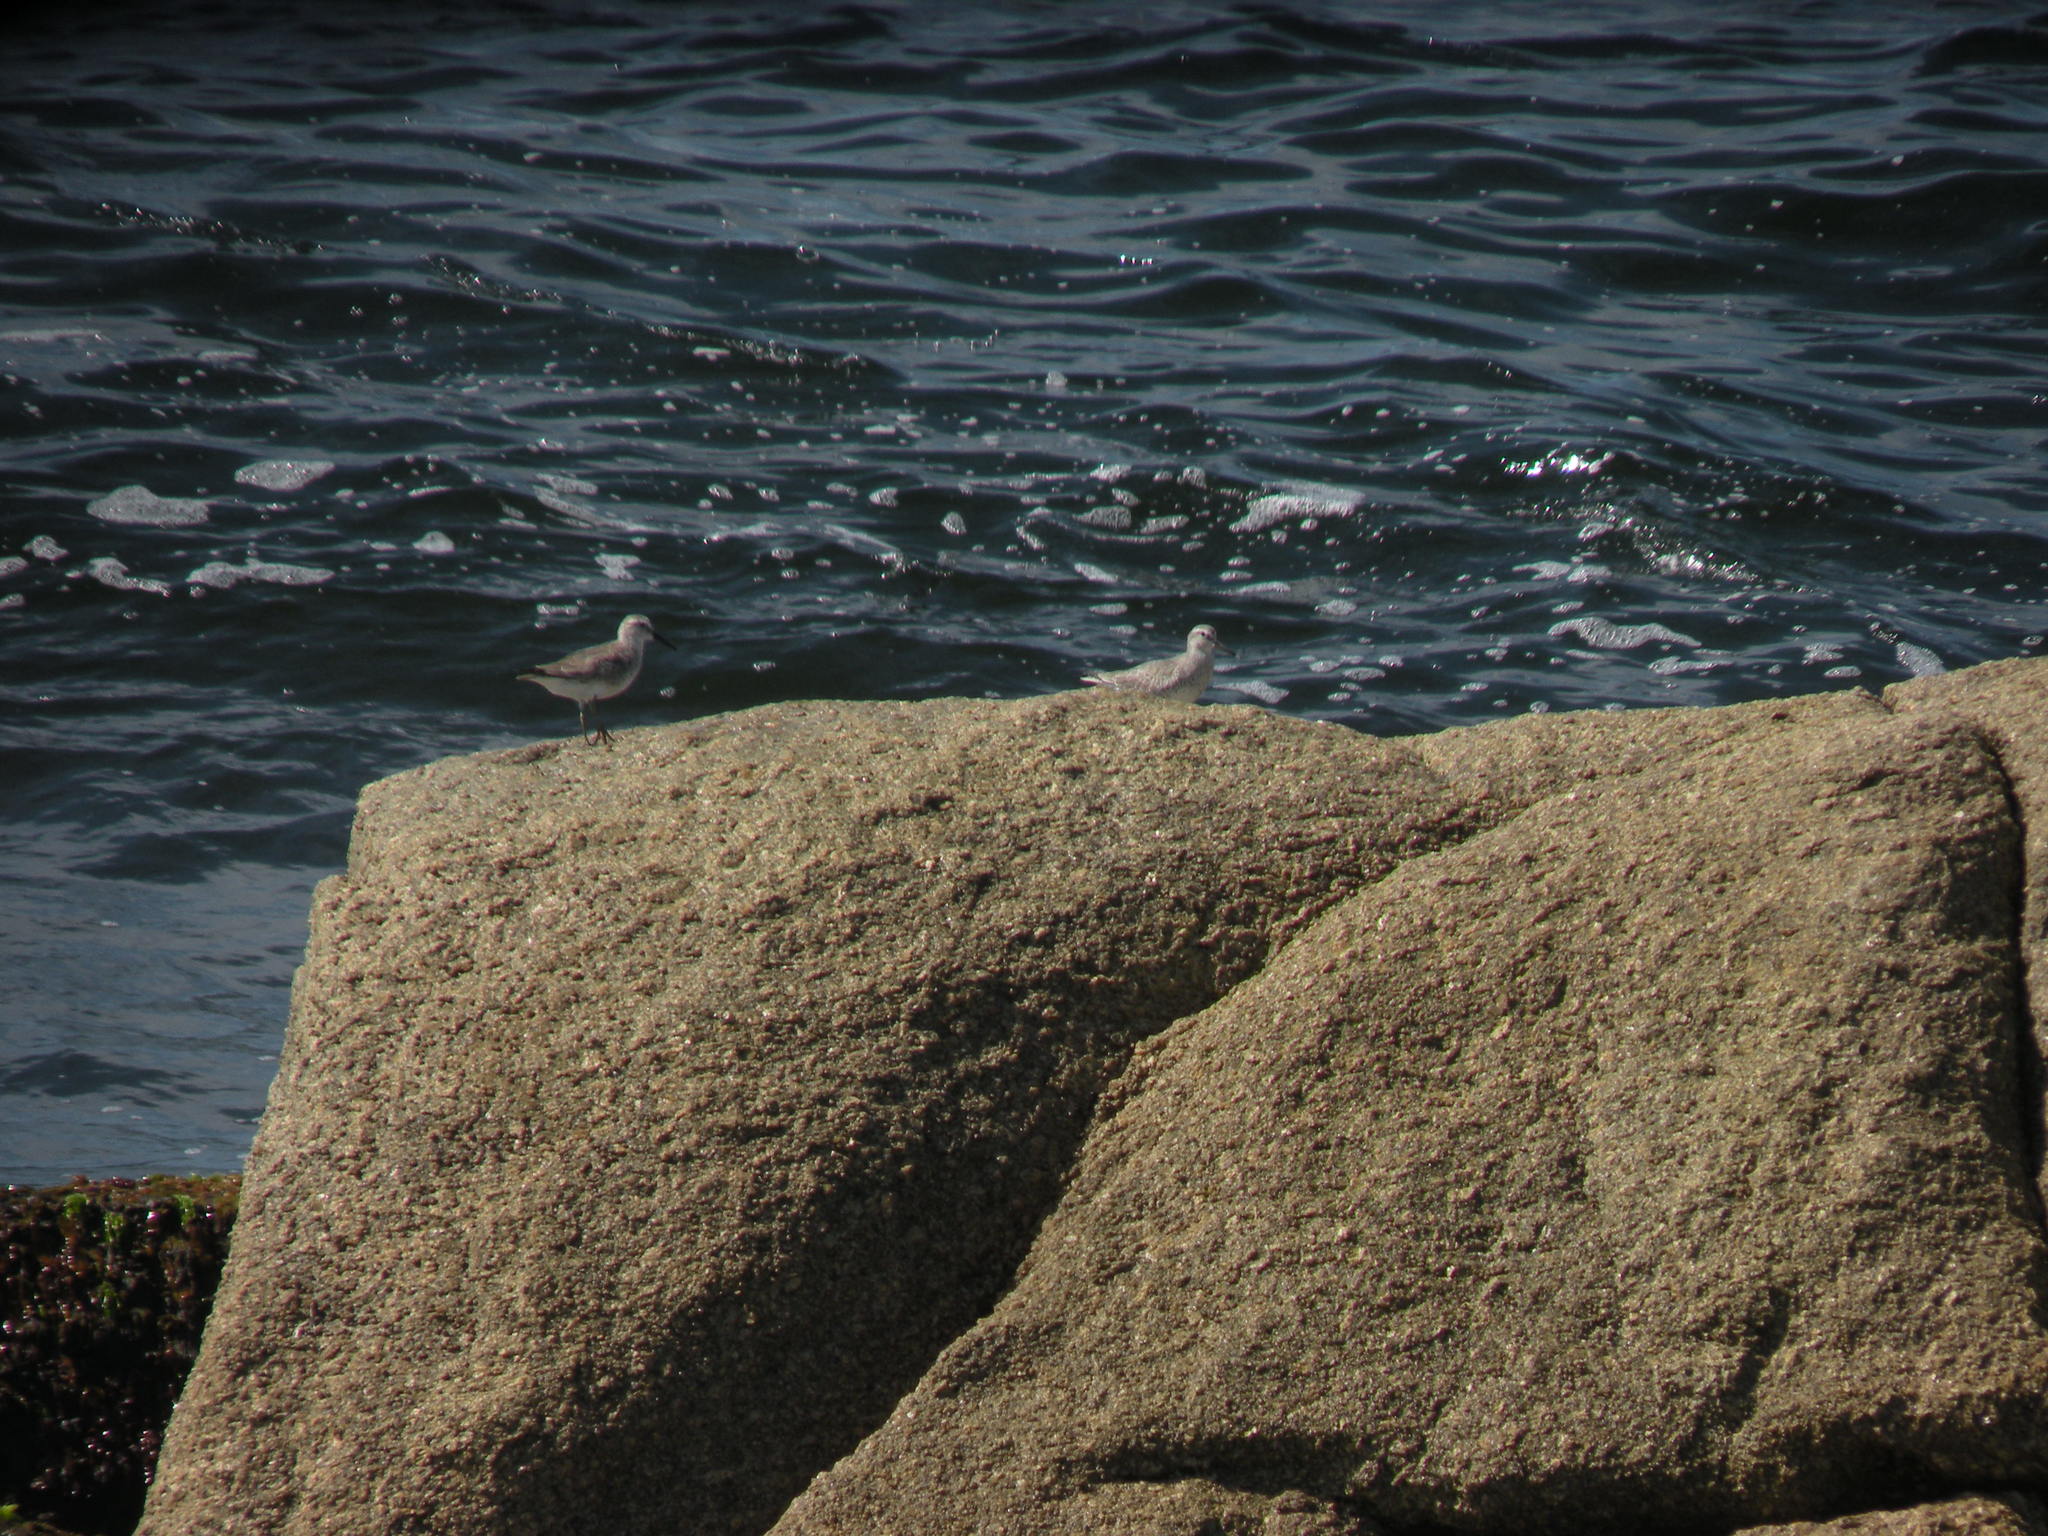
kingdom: Animalia
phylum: Chordata
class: Aves
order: Charadriiformes
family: Scolopacidae
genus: Calidris
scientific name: Calidris canutus
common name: Red knot
